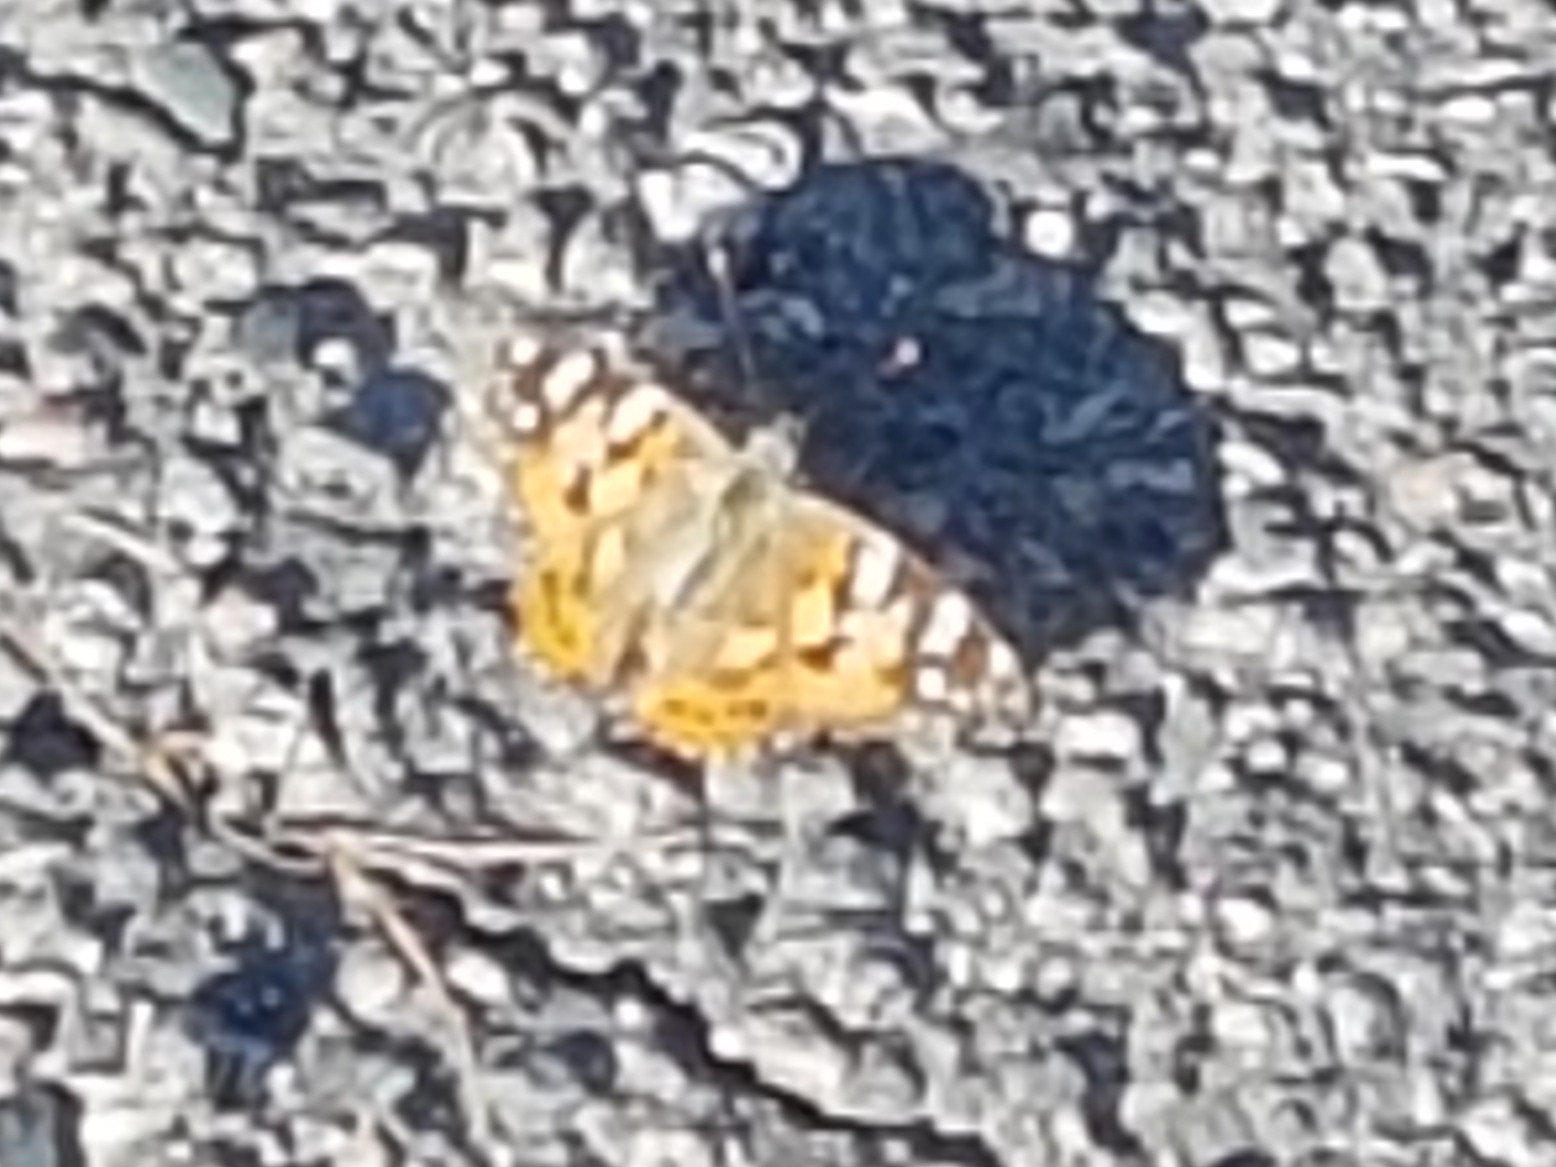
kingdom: Animalia
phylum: Arthropoda
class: Insecta
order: Lepidoptera
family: Nymphalidae
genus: Vanessa
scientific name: Vanessa cardui
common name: Painted lady
